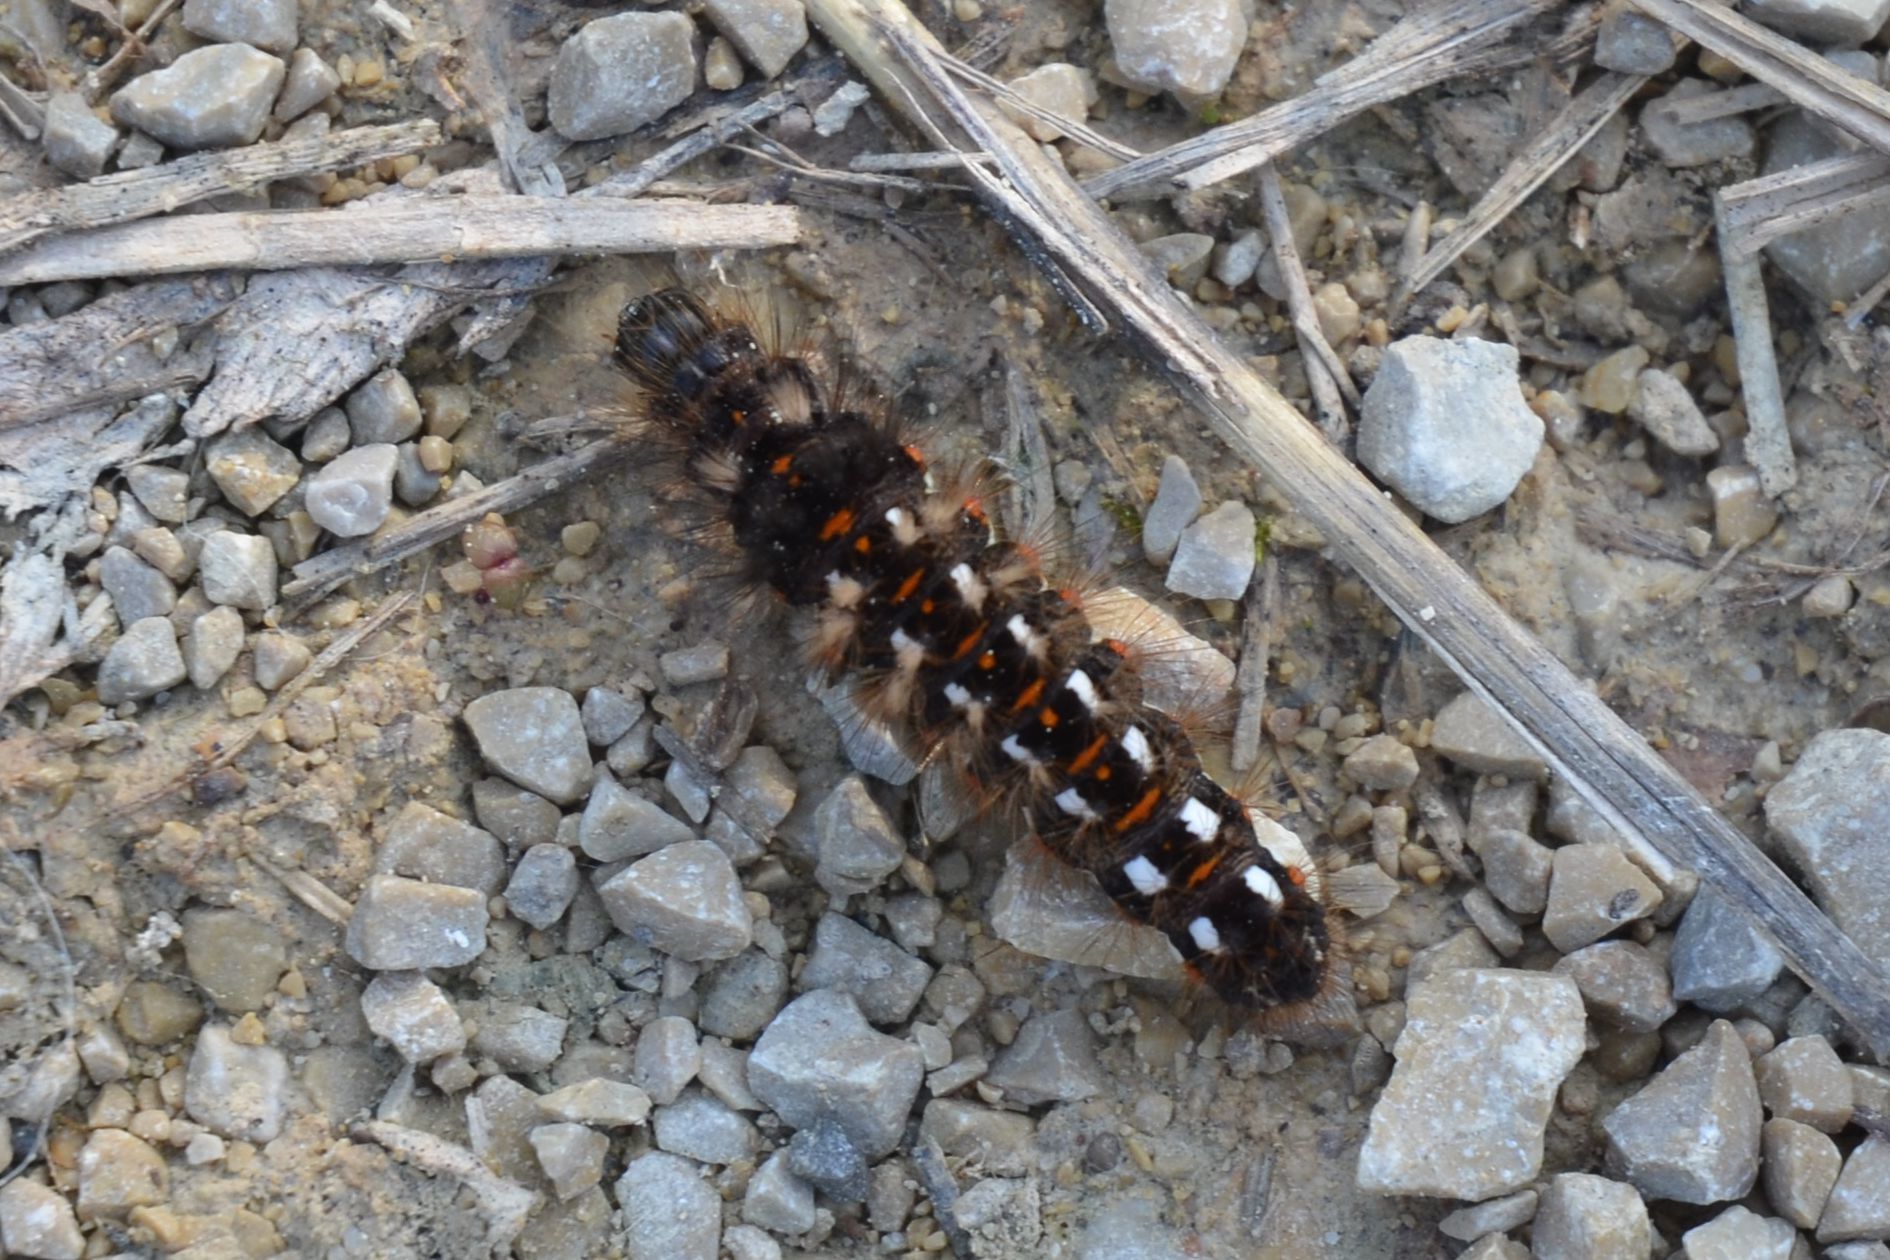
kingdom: Animalia
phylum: Arthropoda
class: Insecta
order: Lepidoptera
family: Noctuidae
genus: Acronicta
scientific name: Acronicta rumicis
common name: Knot grass
